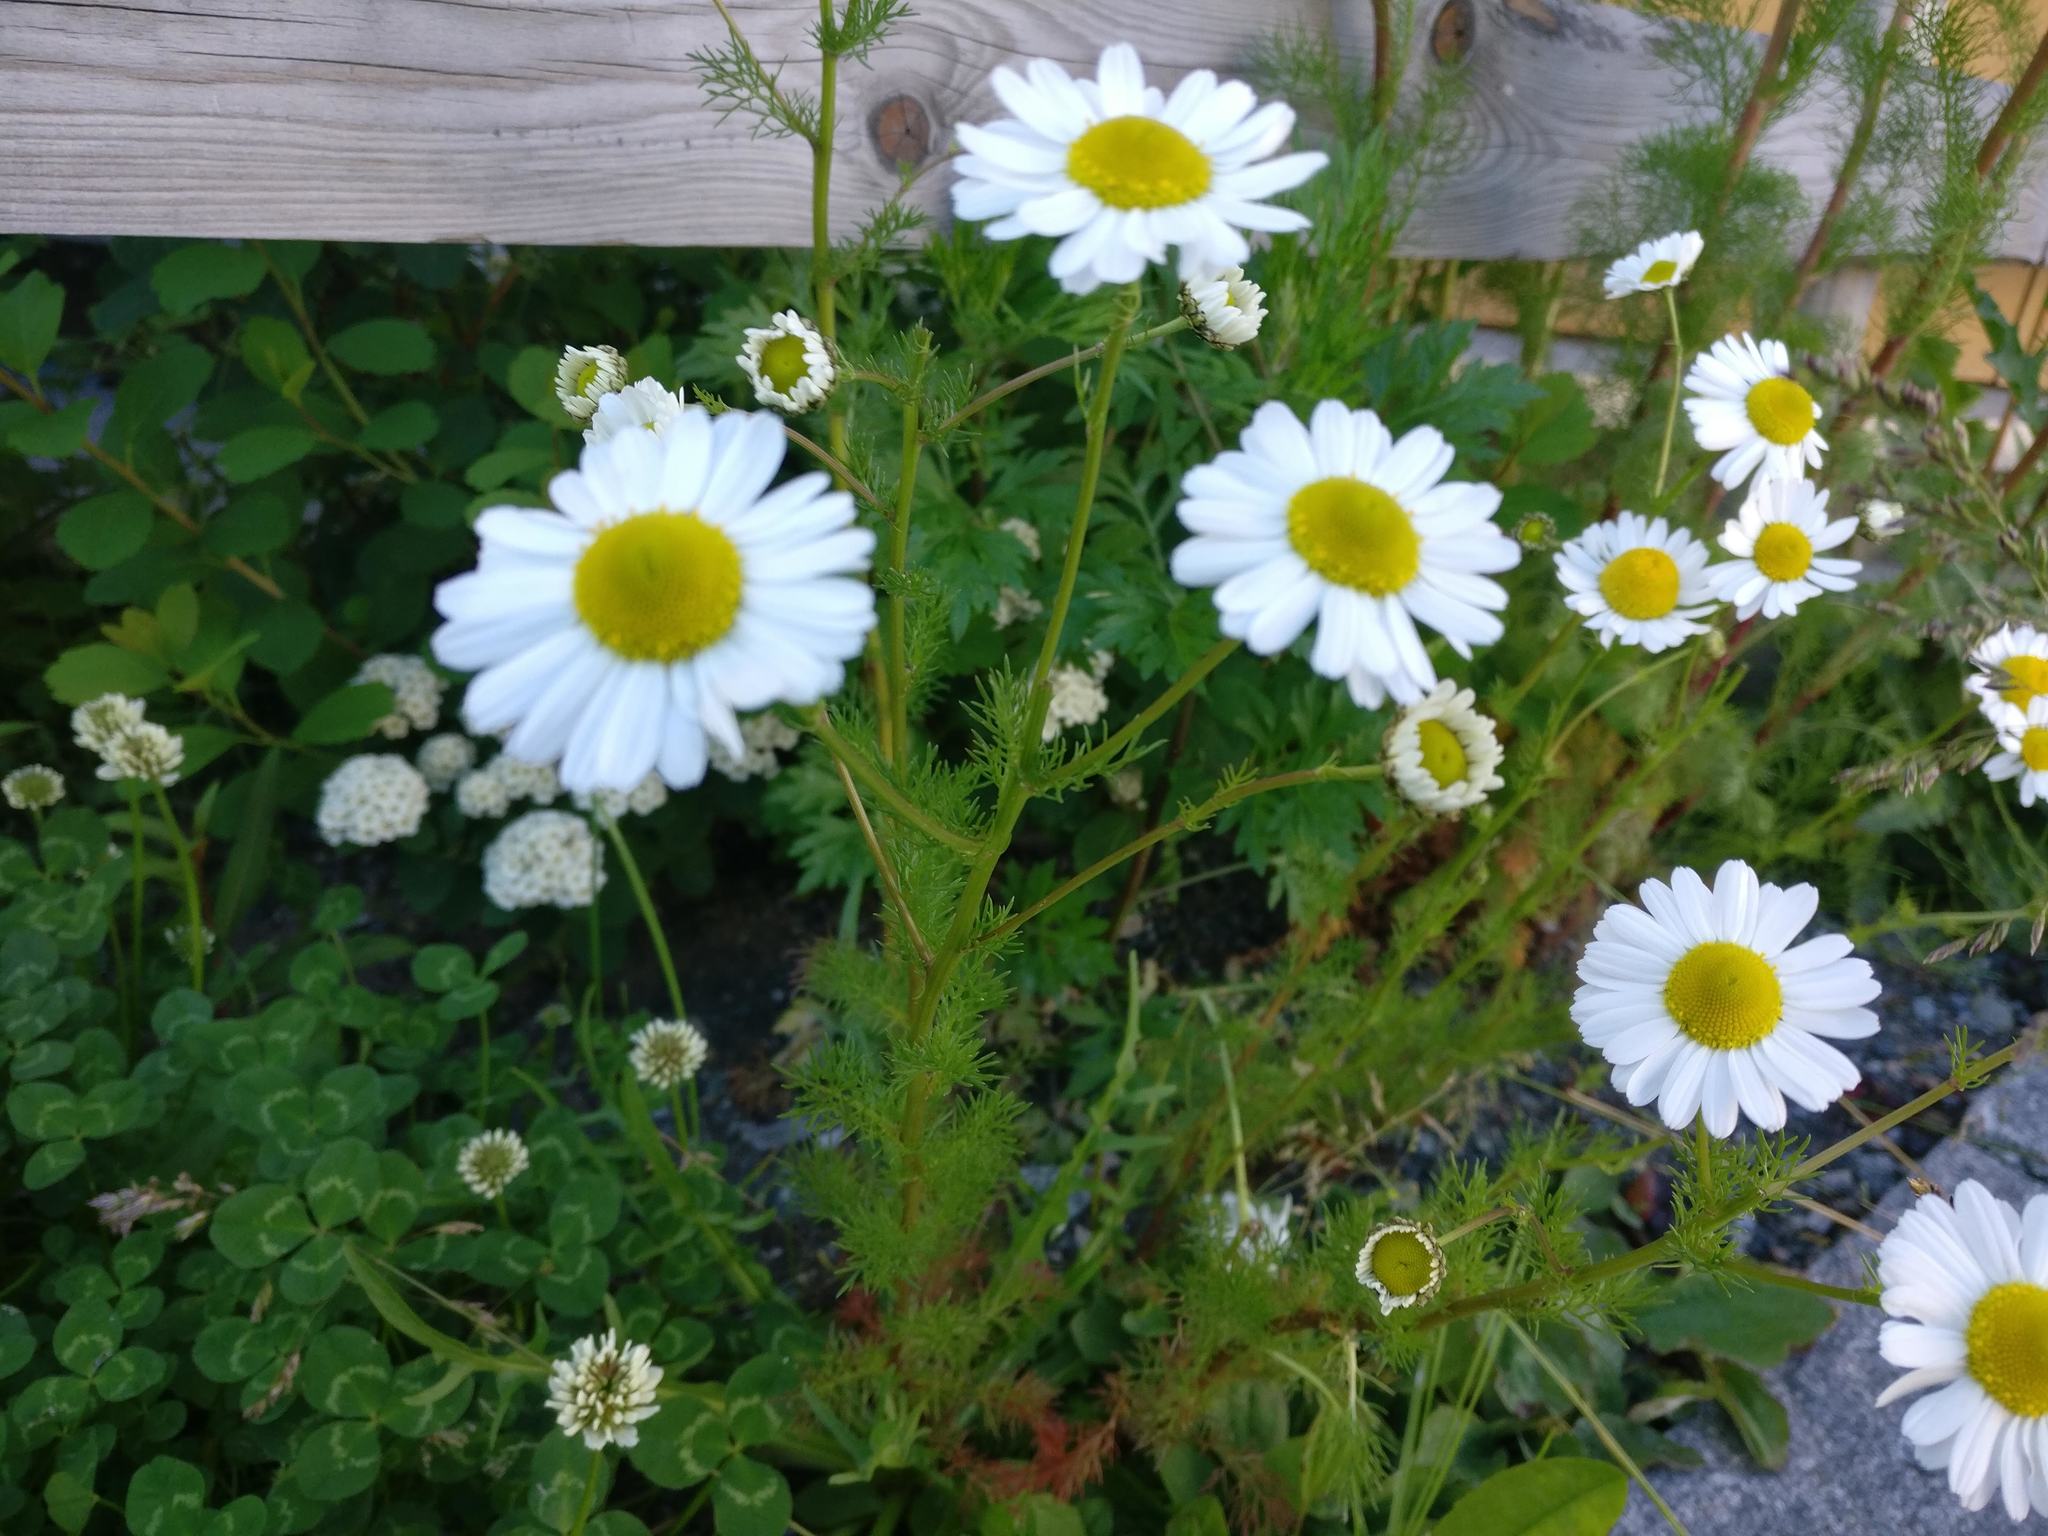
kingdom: Plantae
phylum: Tracheophyta
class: Magnoliopsida
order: Asterales
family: Asteraceae
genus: Tripleurospermum
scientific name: Tripleurospermum inodorum
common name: Scentless mayweed
